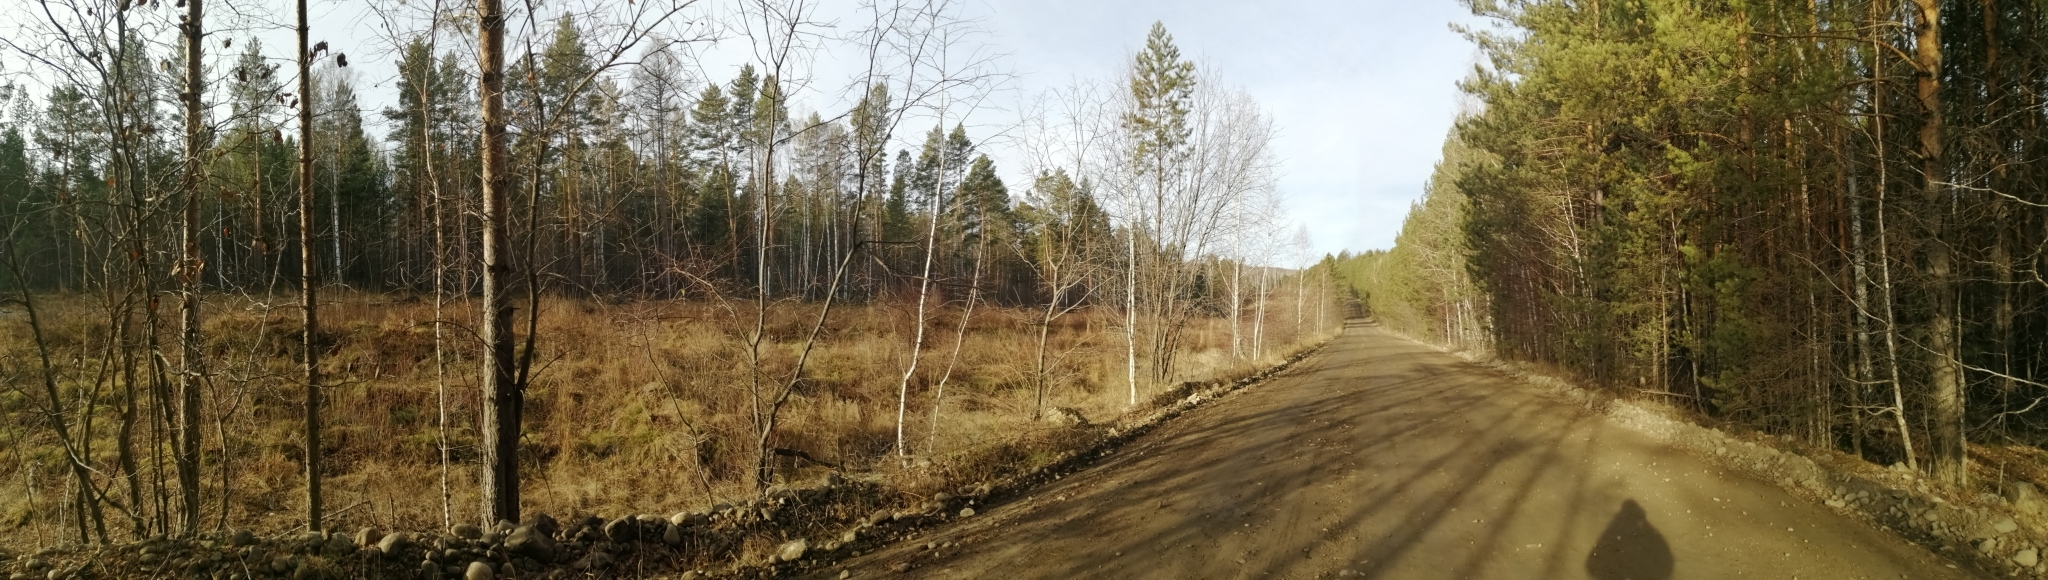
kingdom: Plantae
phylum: Tracheophyta
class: Pinopsida
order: Pinales
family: Pinaceae
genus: Pinus
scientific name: Pinus sylvestris
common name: Scots pine
